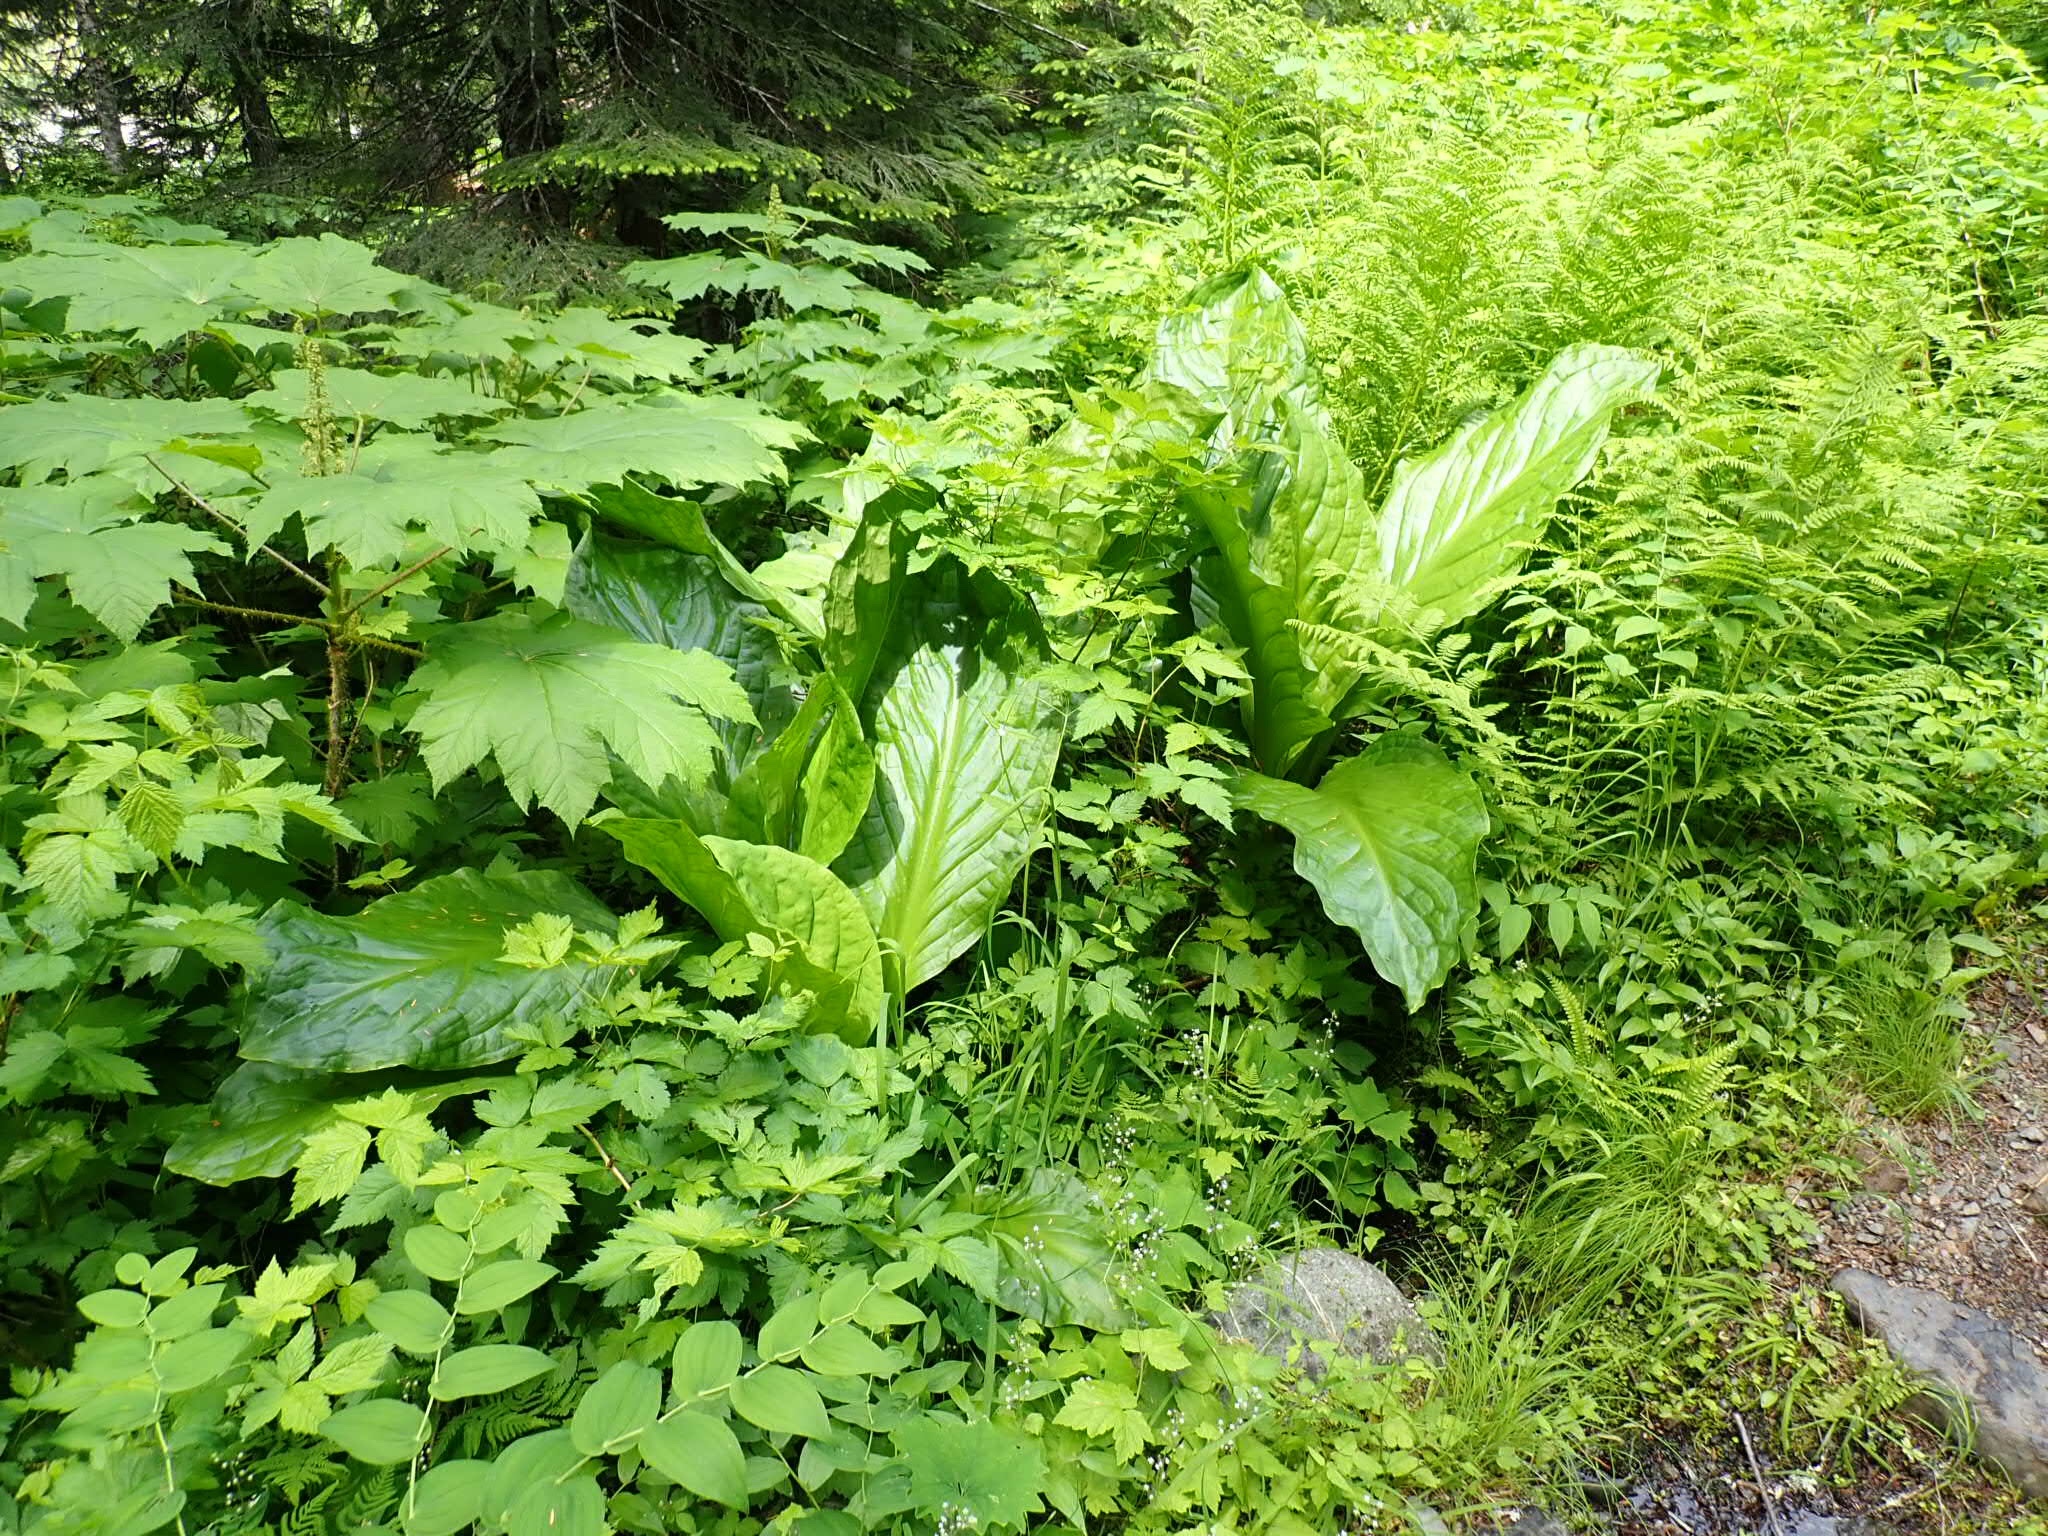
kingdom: Plantae
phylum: Tracheophyta
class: Liliopsida
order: Alismatales
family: Araceae
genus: Lysichiton
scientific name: Lysichiton americanus
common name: American skunk cabbage
